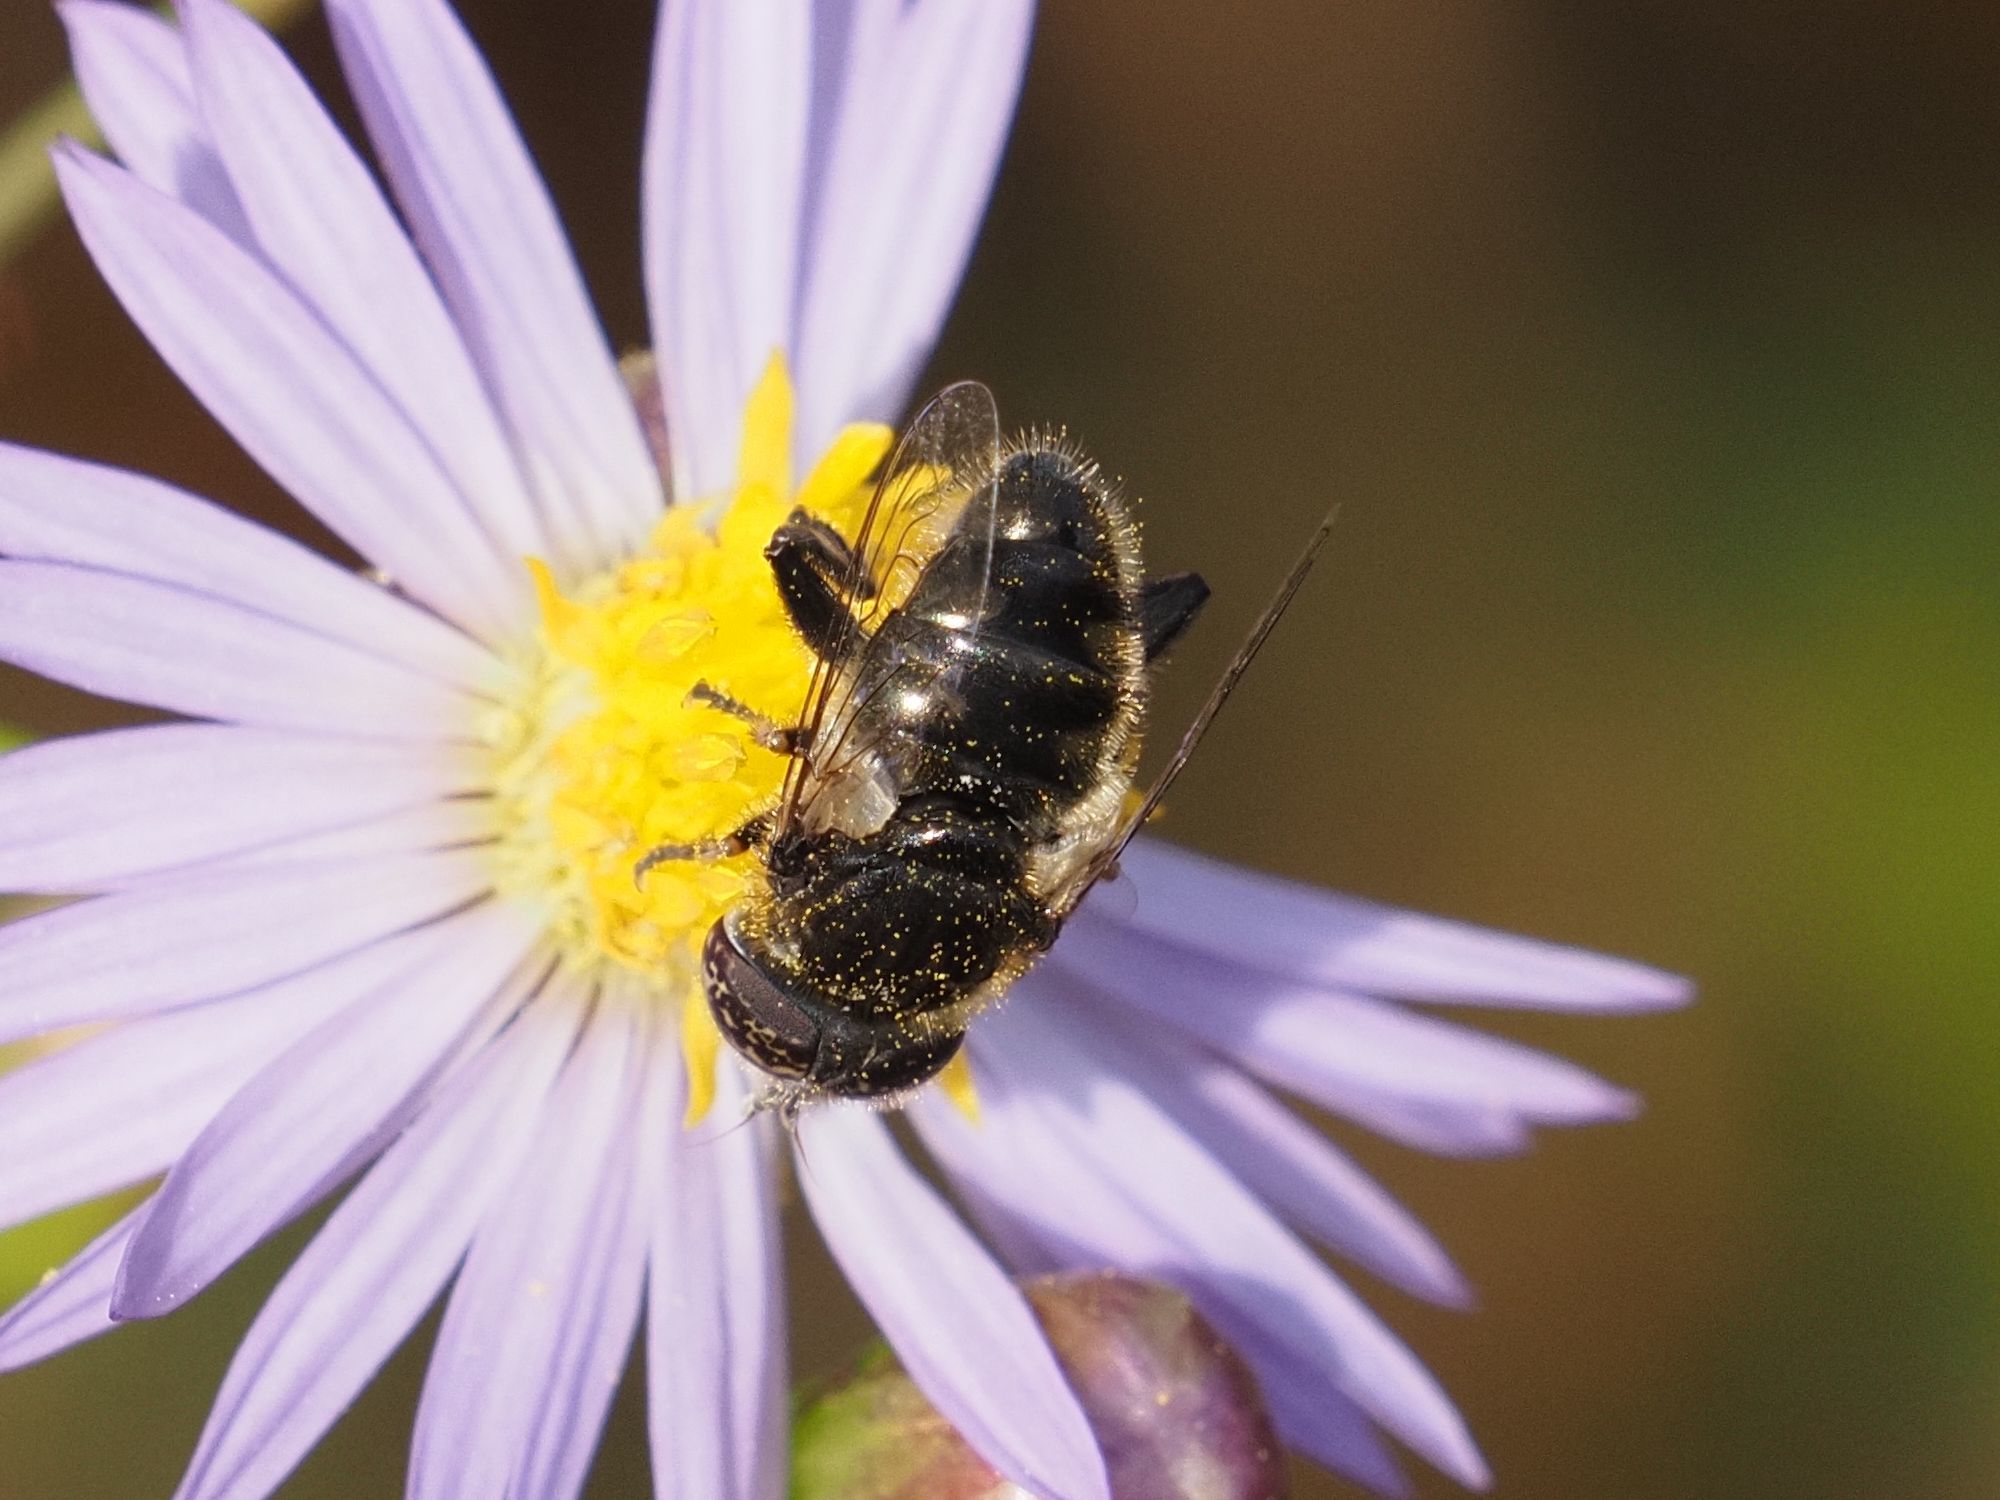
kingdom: Animalia
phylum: Arthropoda
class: Insecta
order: Diptera
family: Syrphidae
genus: Eristalinus
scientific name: Eristalinus sepulchralis
